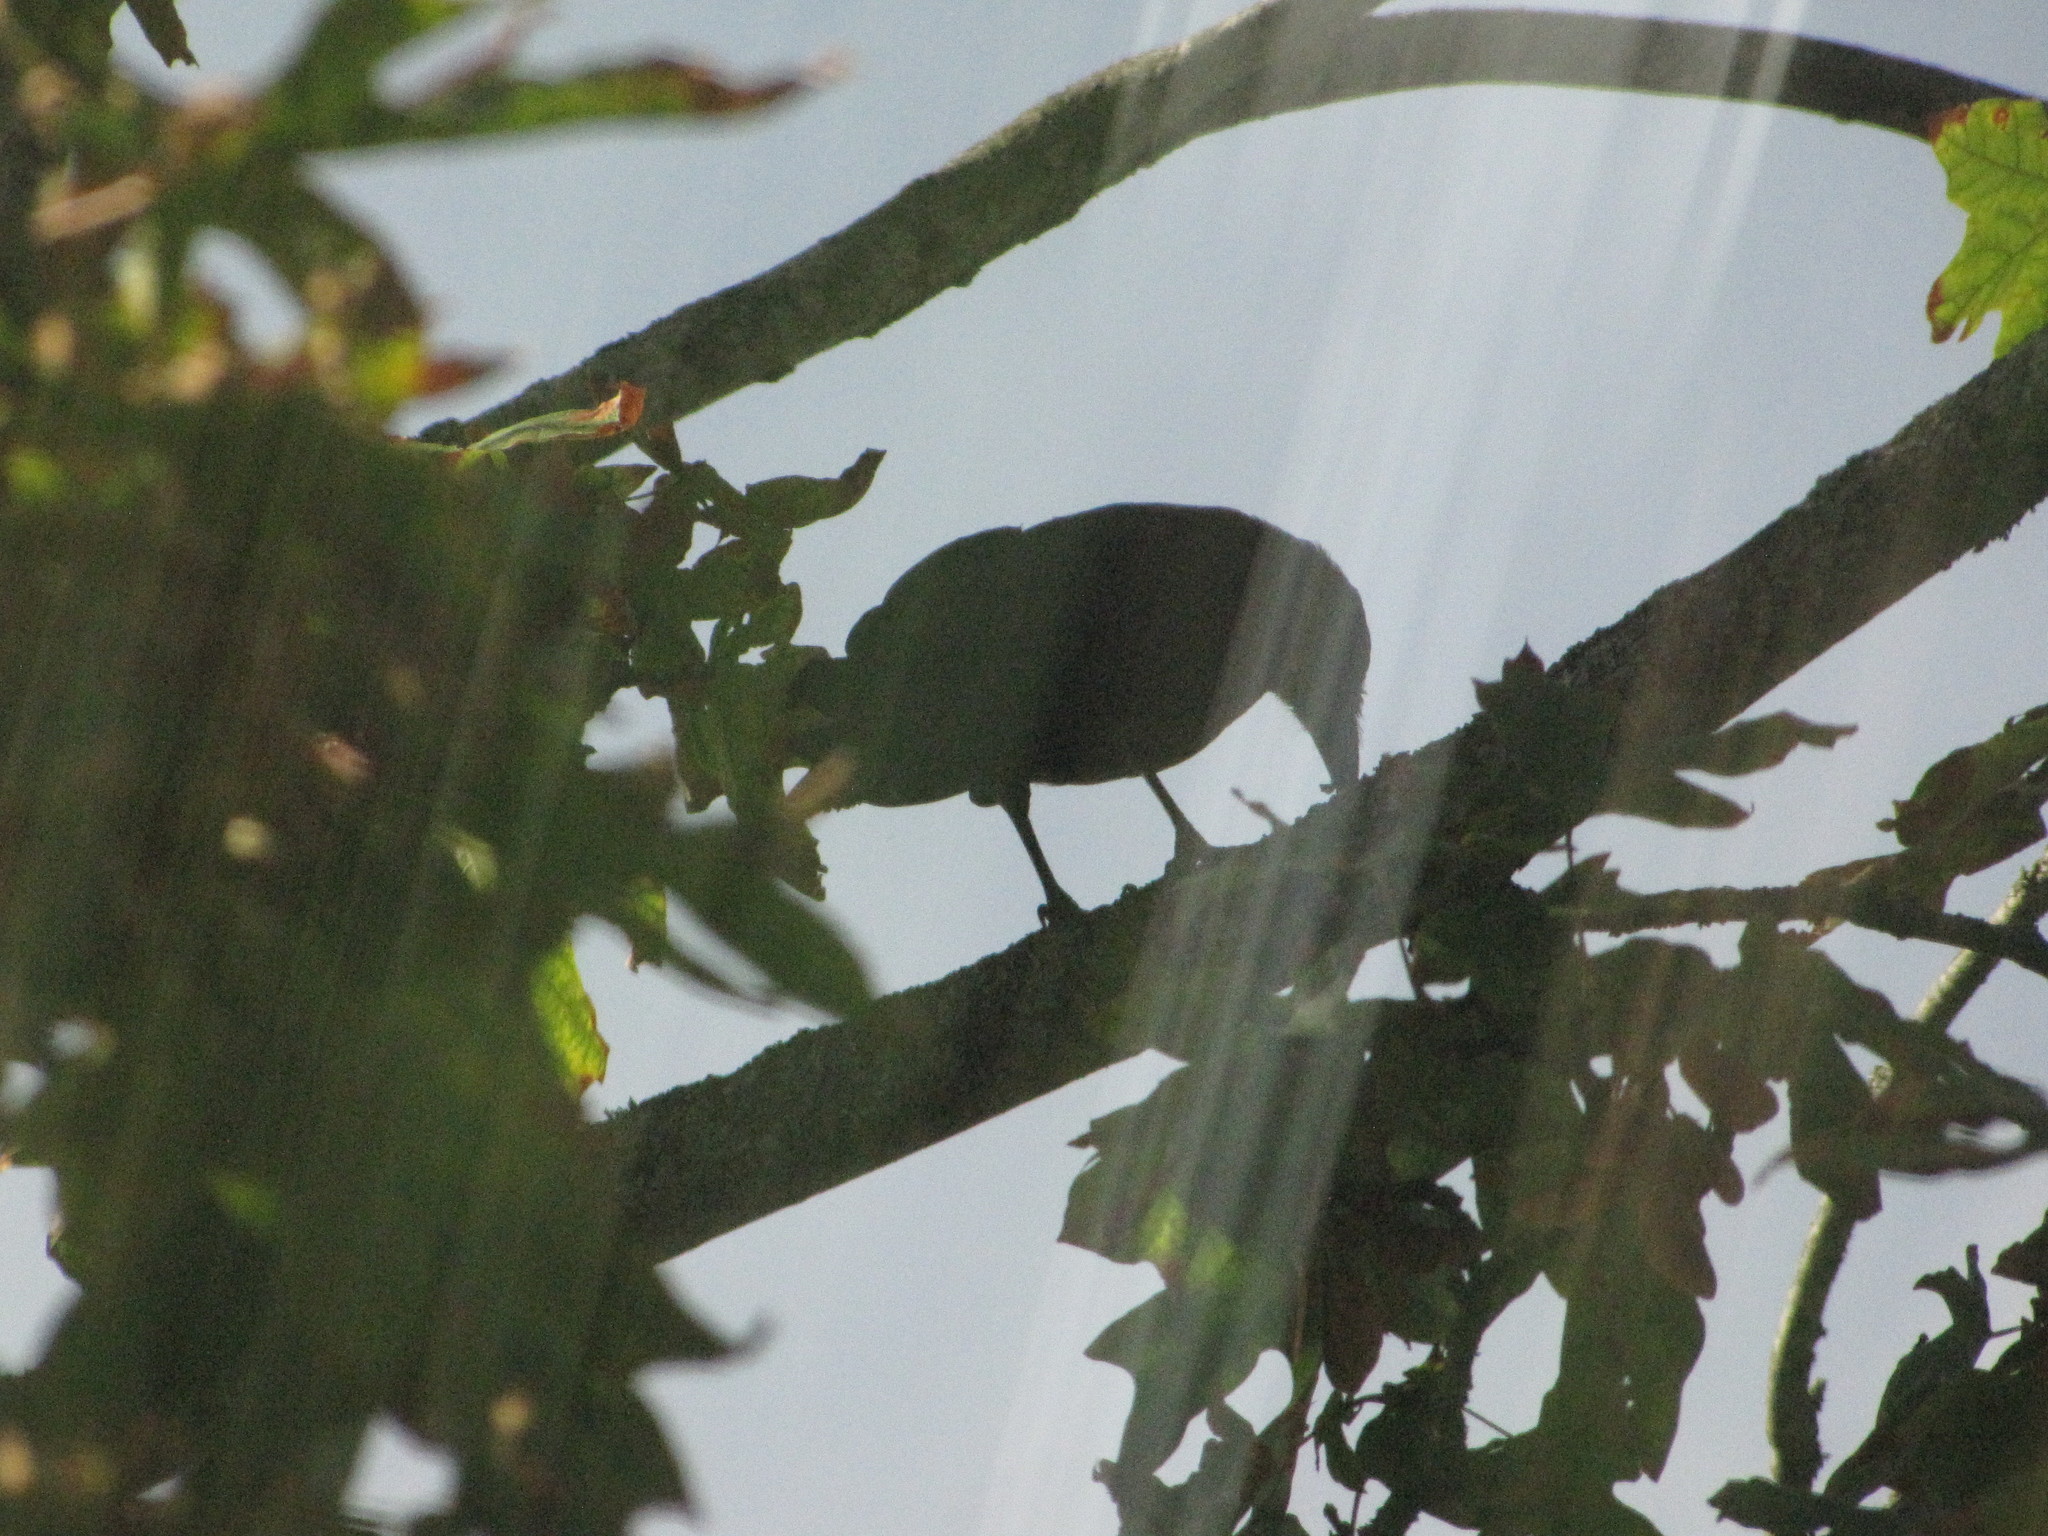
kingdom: Animalia
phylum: Chordata
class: Aves
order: Passeriformes
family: Corvidae
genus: Corvus
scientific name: Corvus brachyrhynchos
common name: American crow
